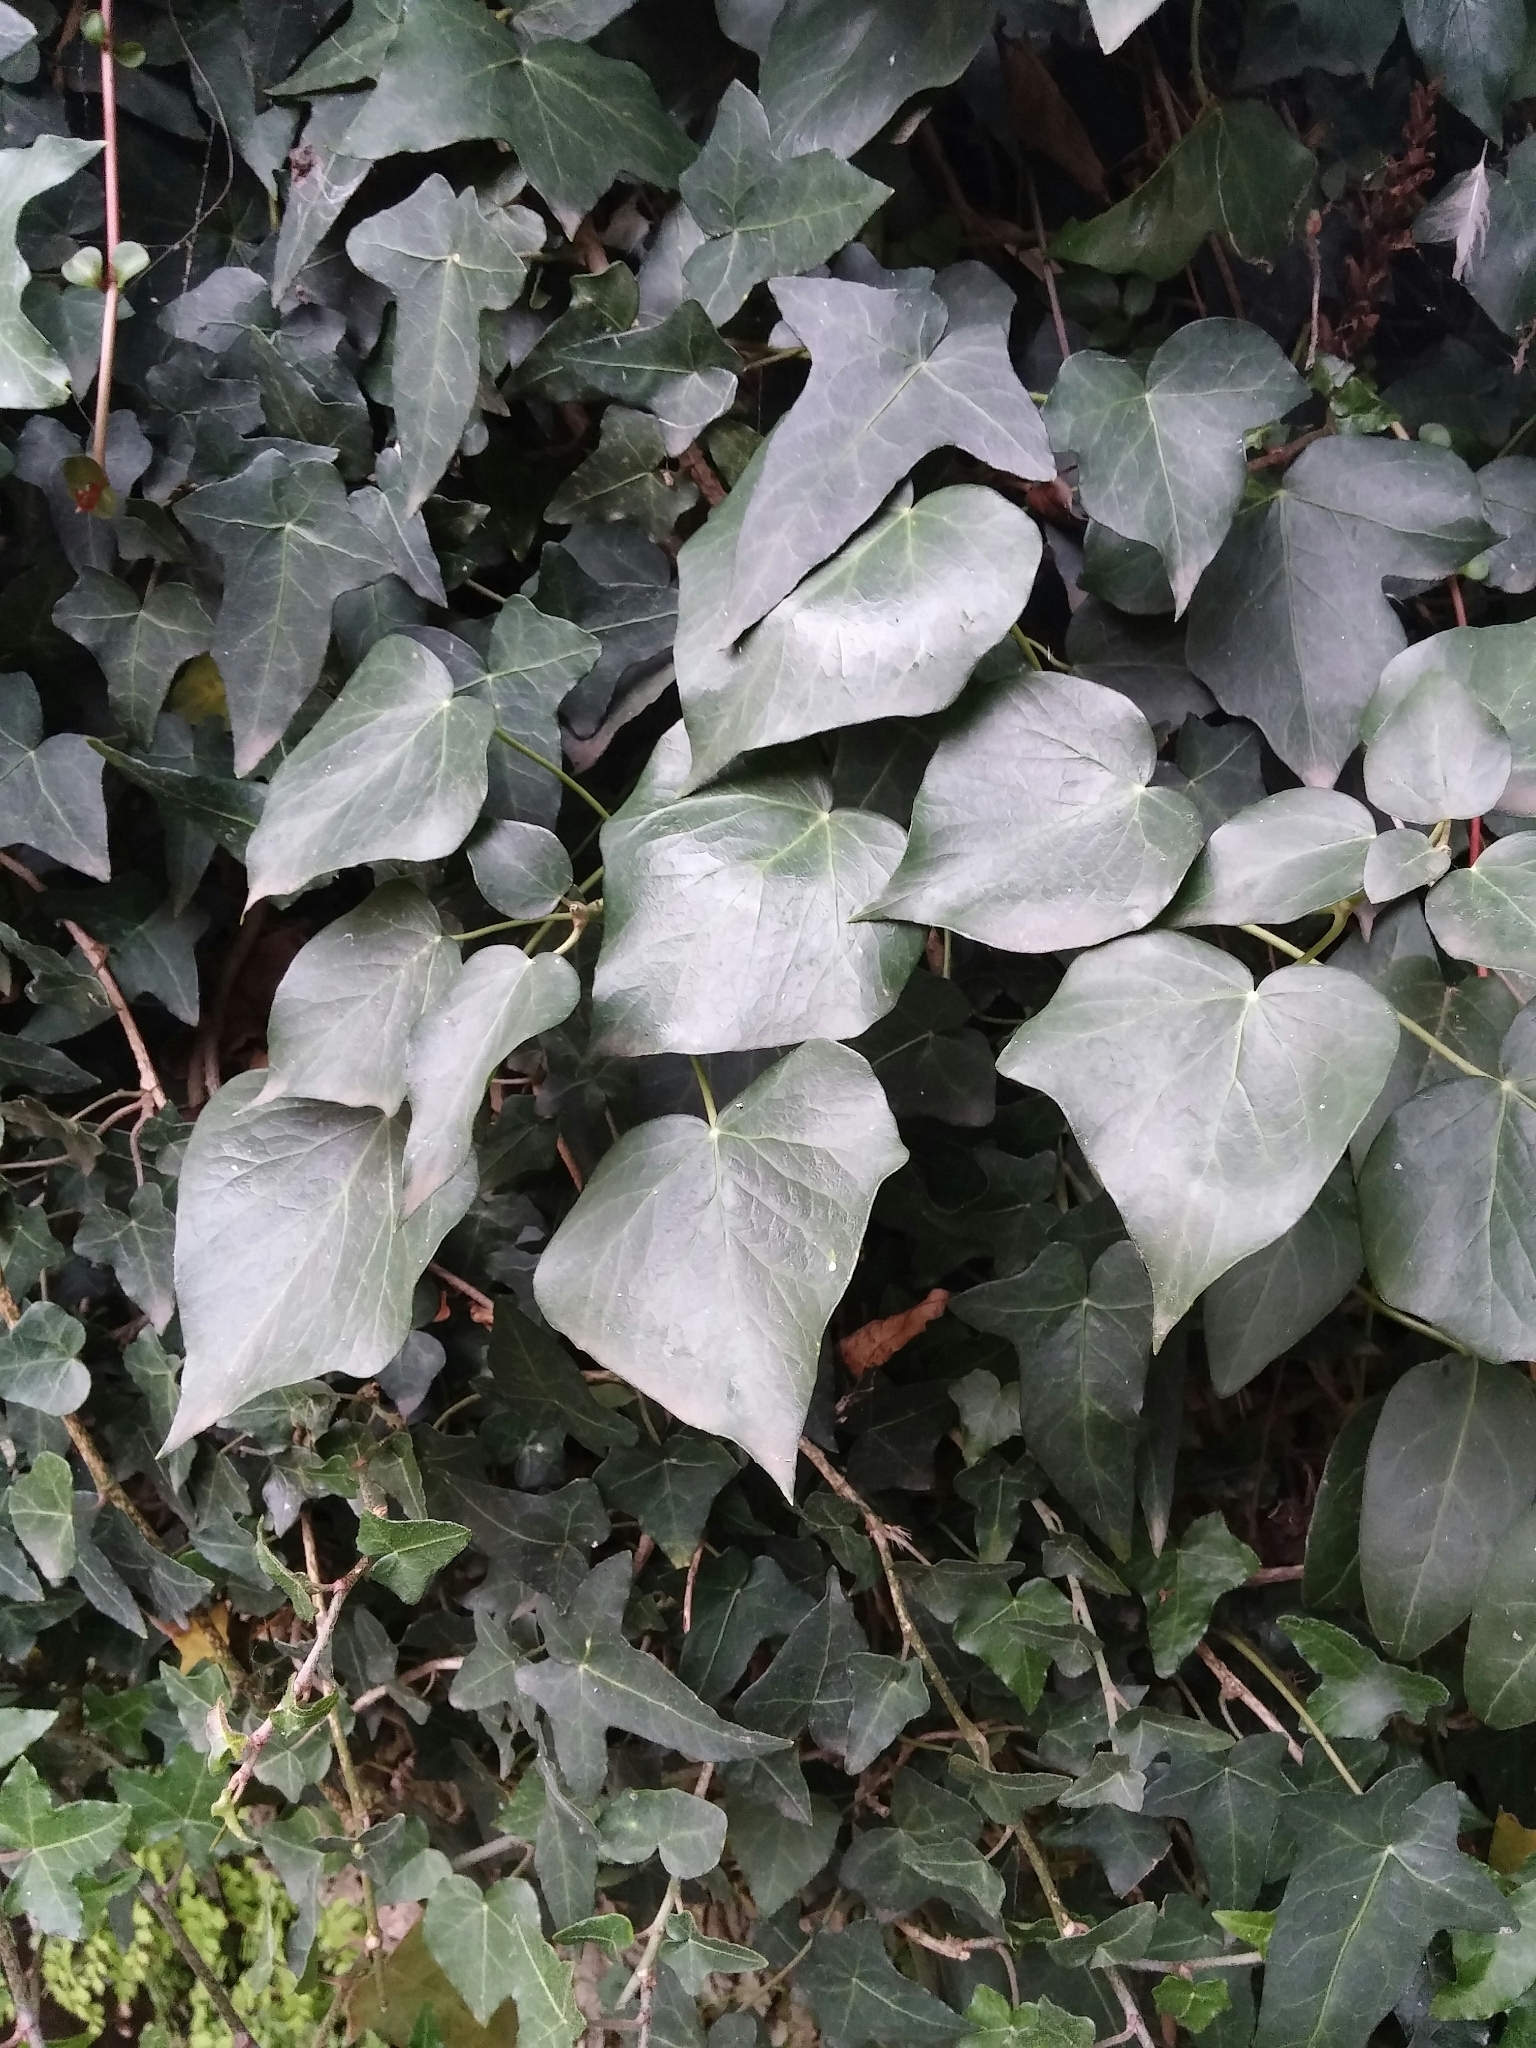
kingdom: Plantae
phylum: Tracheophyta
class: Magnoliopsida
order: Apiales
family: Araliaceae
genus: Hedera
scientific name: Hedera helix
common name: Ivy
